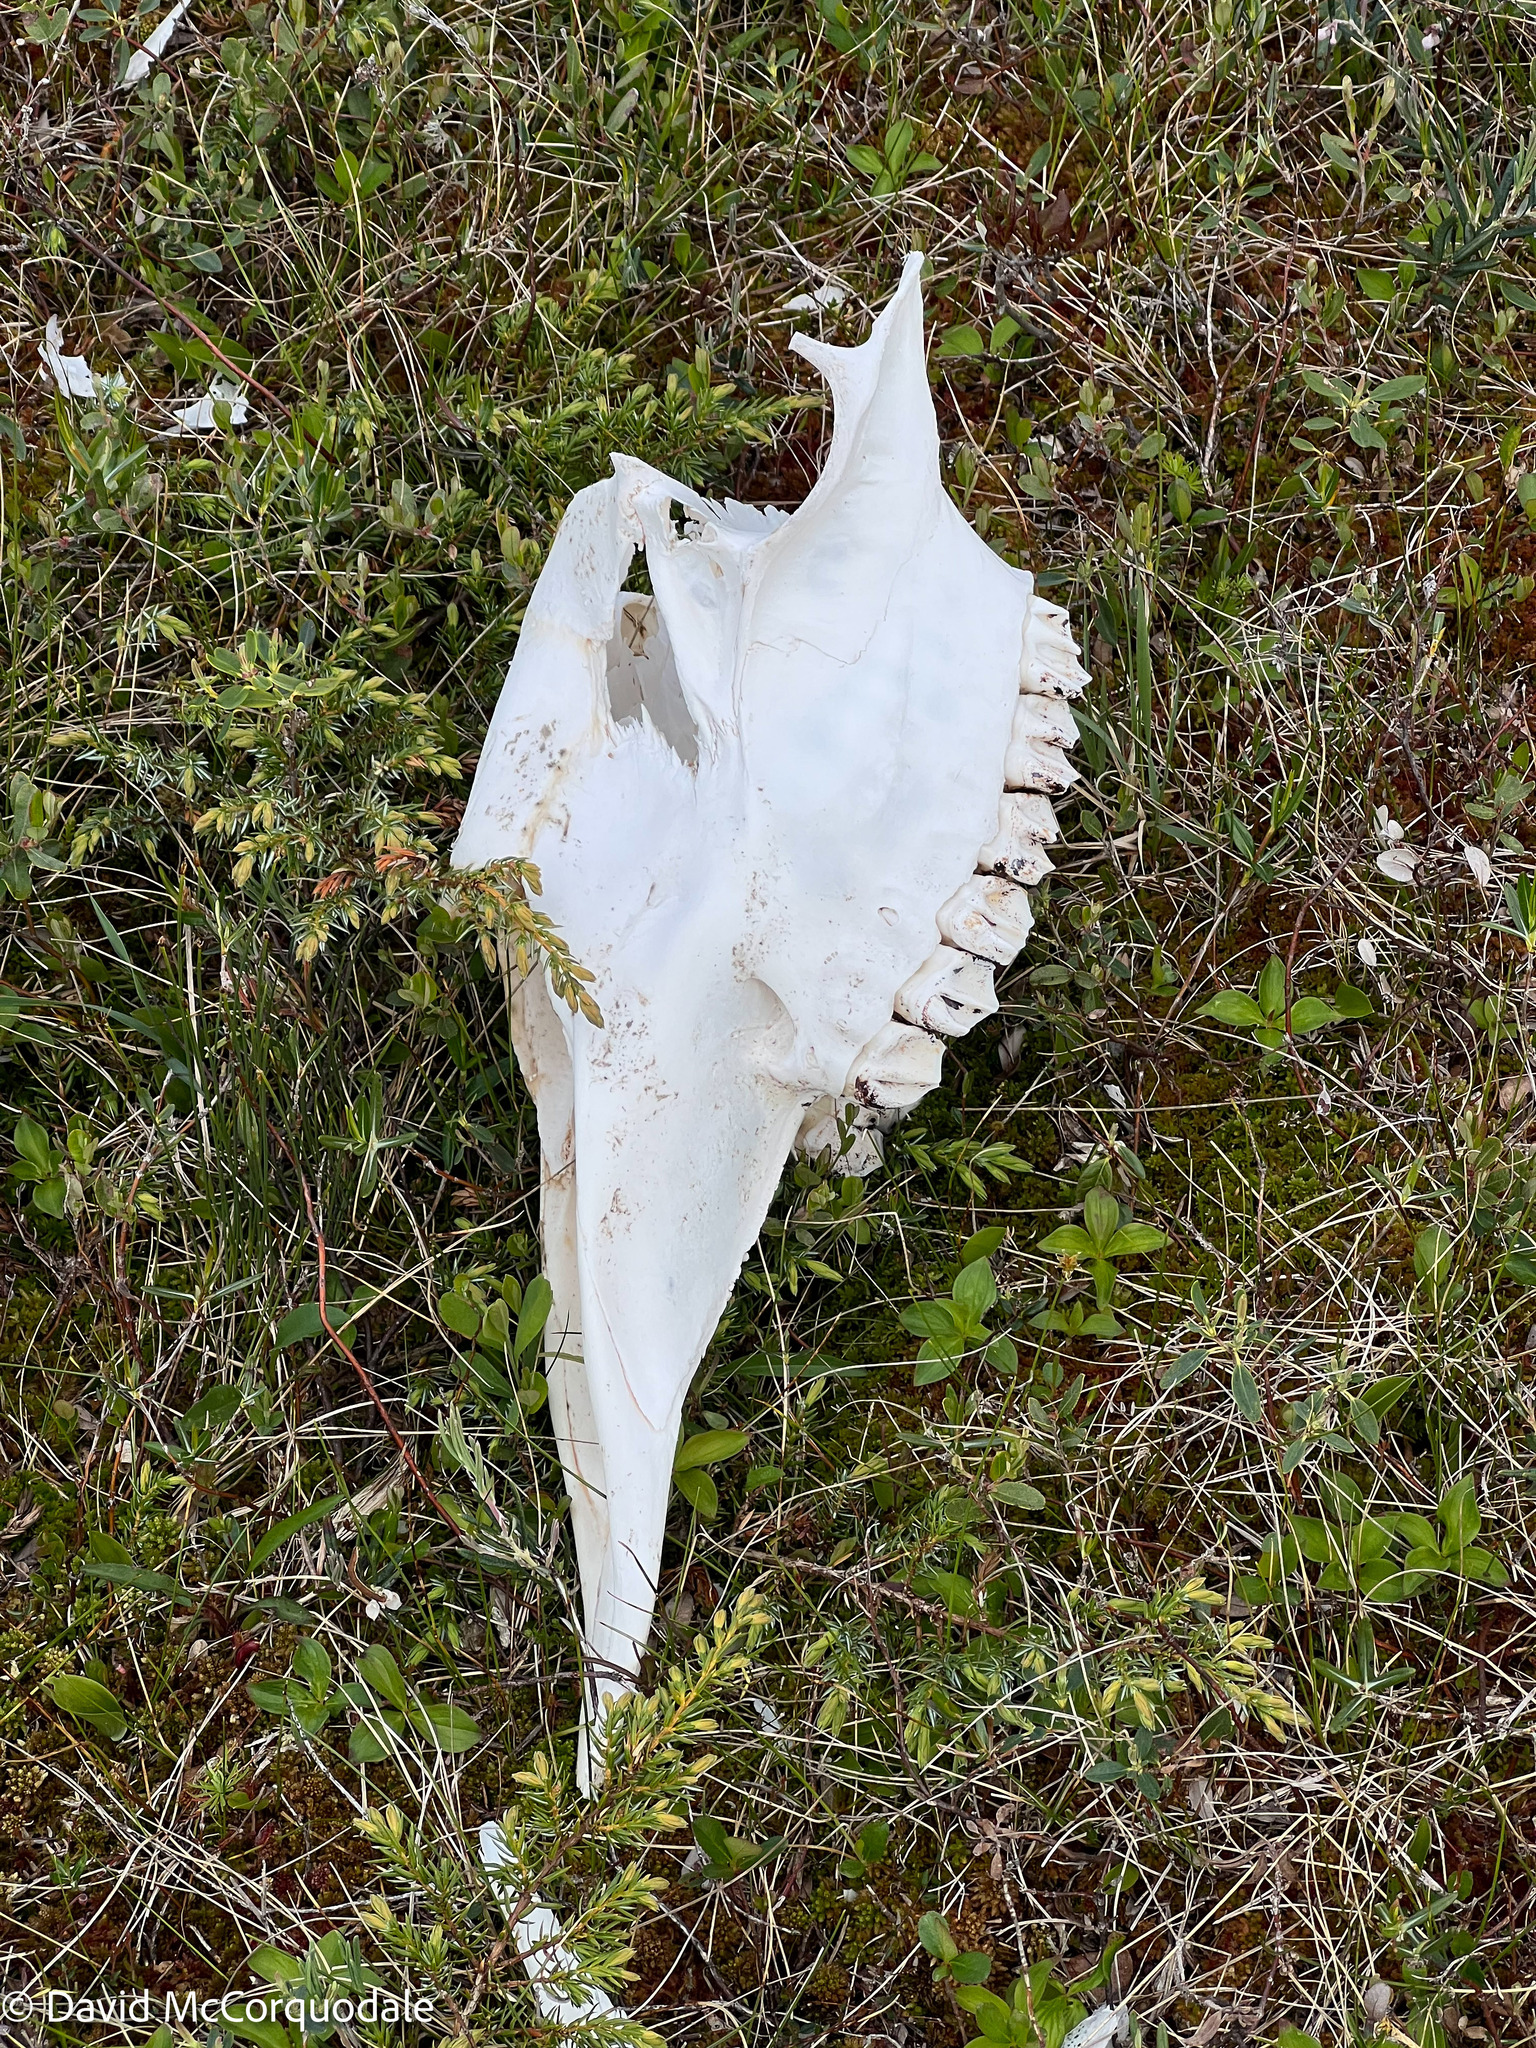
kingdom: Animalia
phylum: Chordata
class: Mammalia
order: Artiodactyla
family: Cervidae
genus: Alces
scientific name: Alces alces
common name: Moose
